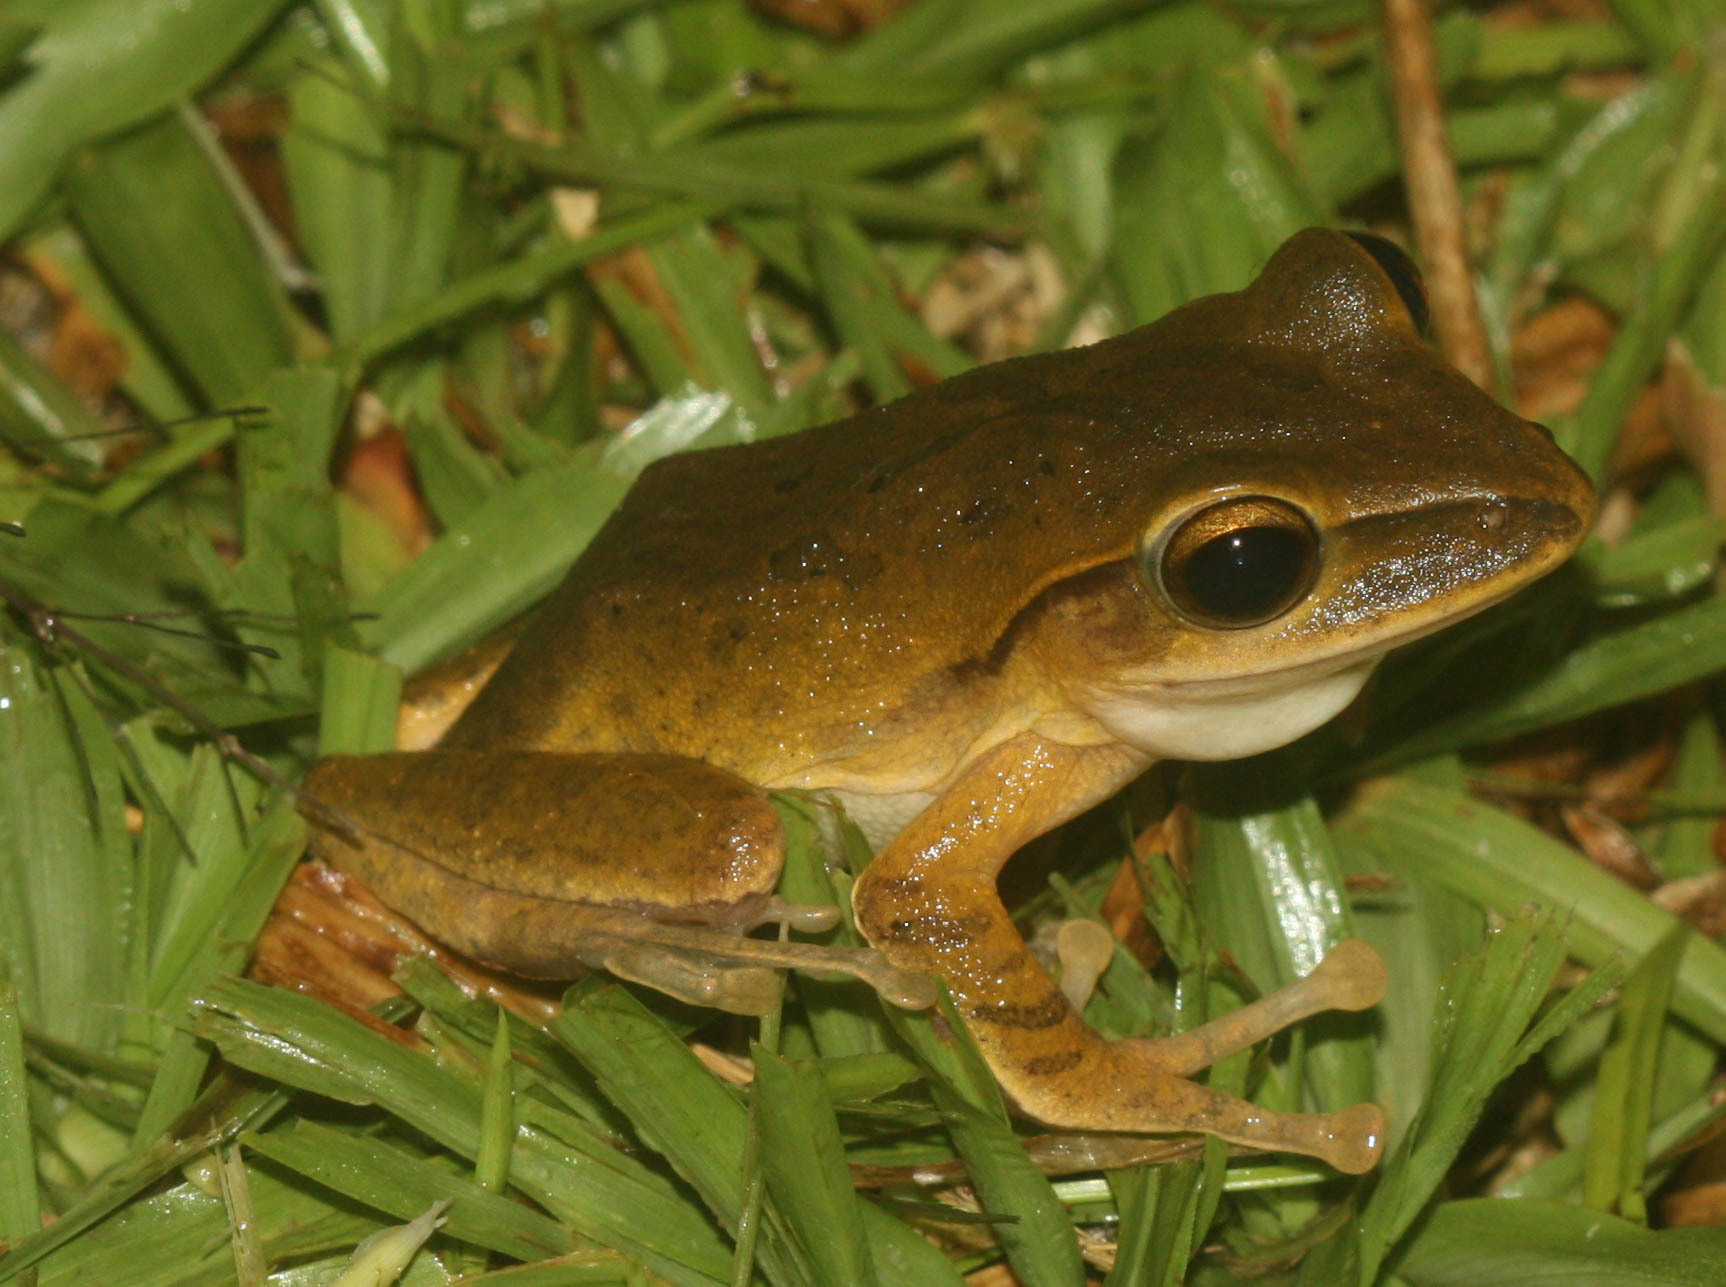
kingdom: Animalia
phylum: Chordata
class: Amphibia
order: Anura
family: Rhacophoridae
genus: Polypedates
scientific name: Polypedates megacephalus
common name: Hong kong whipping frog
